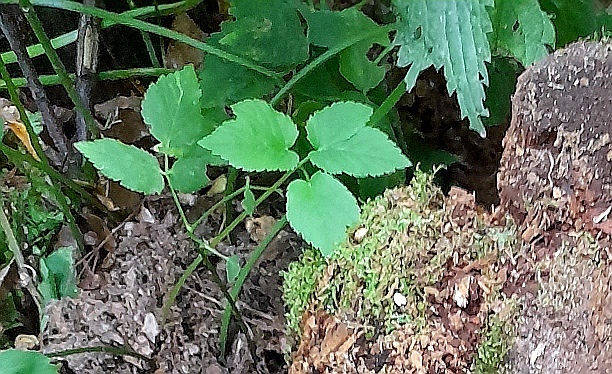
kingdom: Plantae
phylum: Tracheophyta
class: Magnoliopsida
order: Apiales
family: Apiaceae
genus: Aegopodium
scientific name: Aegopodium podagraria
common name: Ground-elder
